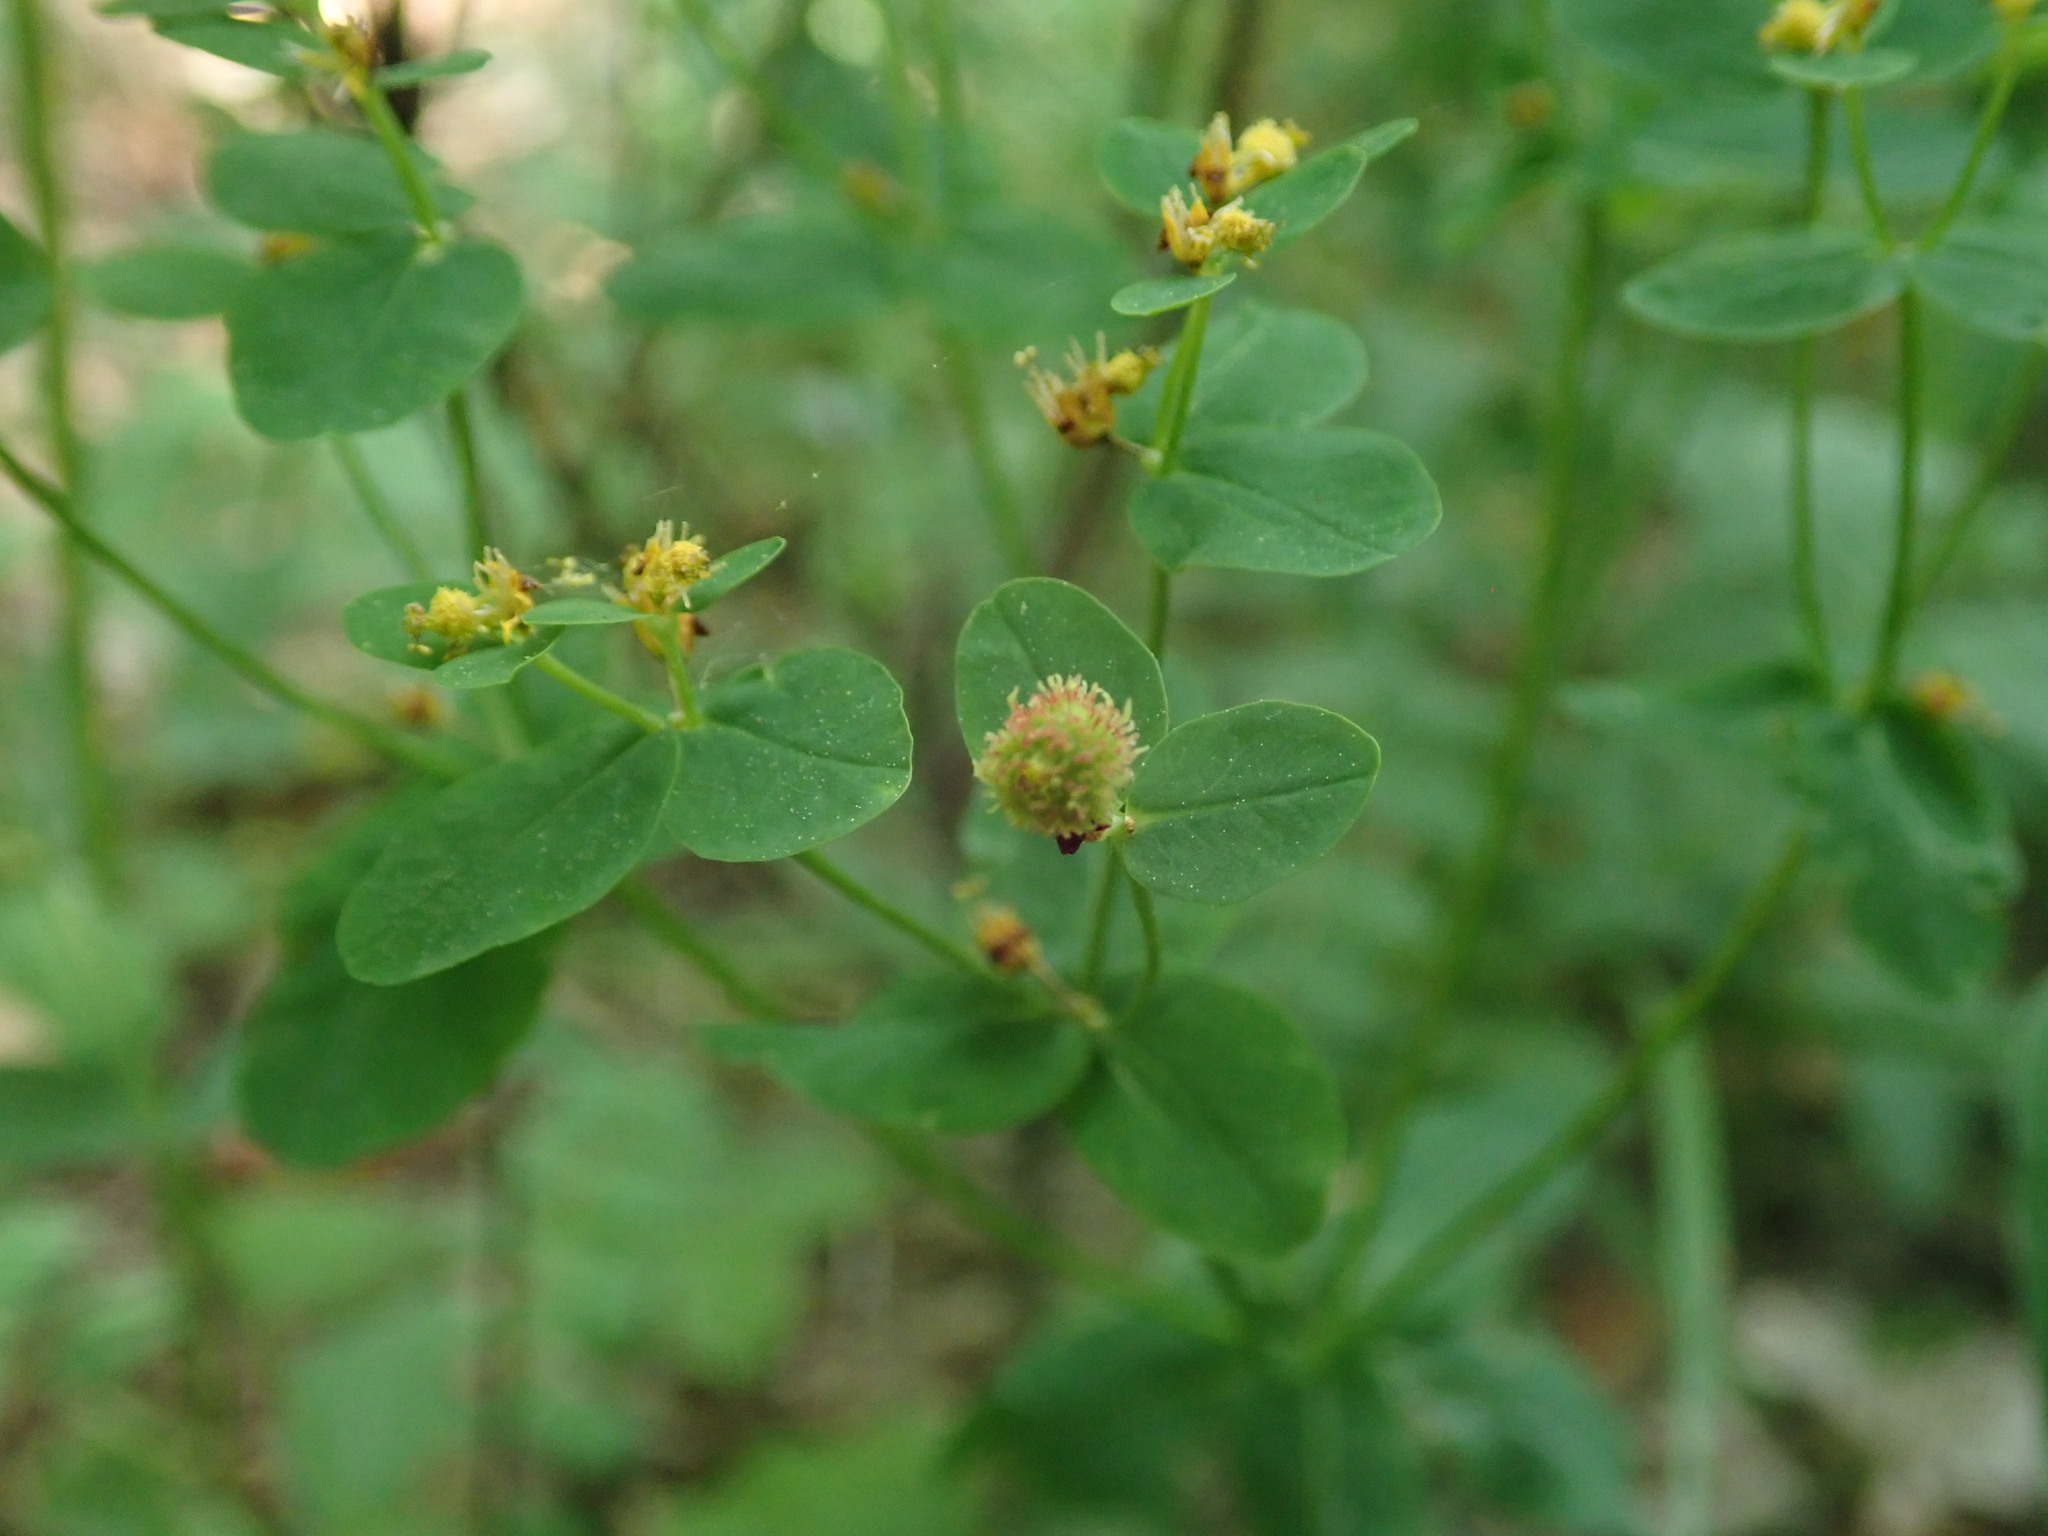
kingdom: Plantae
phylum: Tracheophyta
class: Magnoliopsida
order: Malpighiales
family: Euphorbiaceae
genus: Euphorbia
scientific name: Euphorbia epithymoides
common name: Cushion spurge
